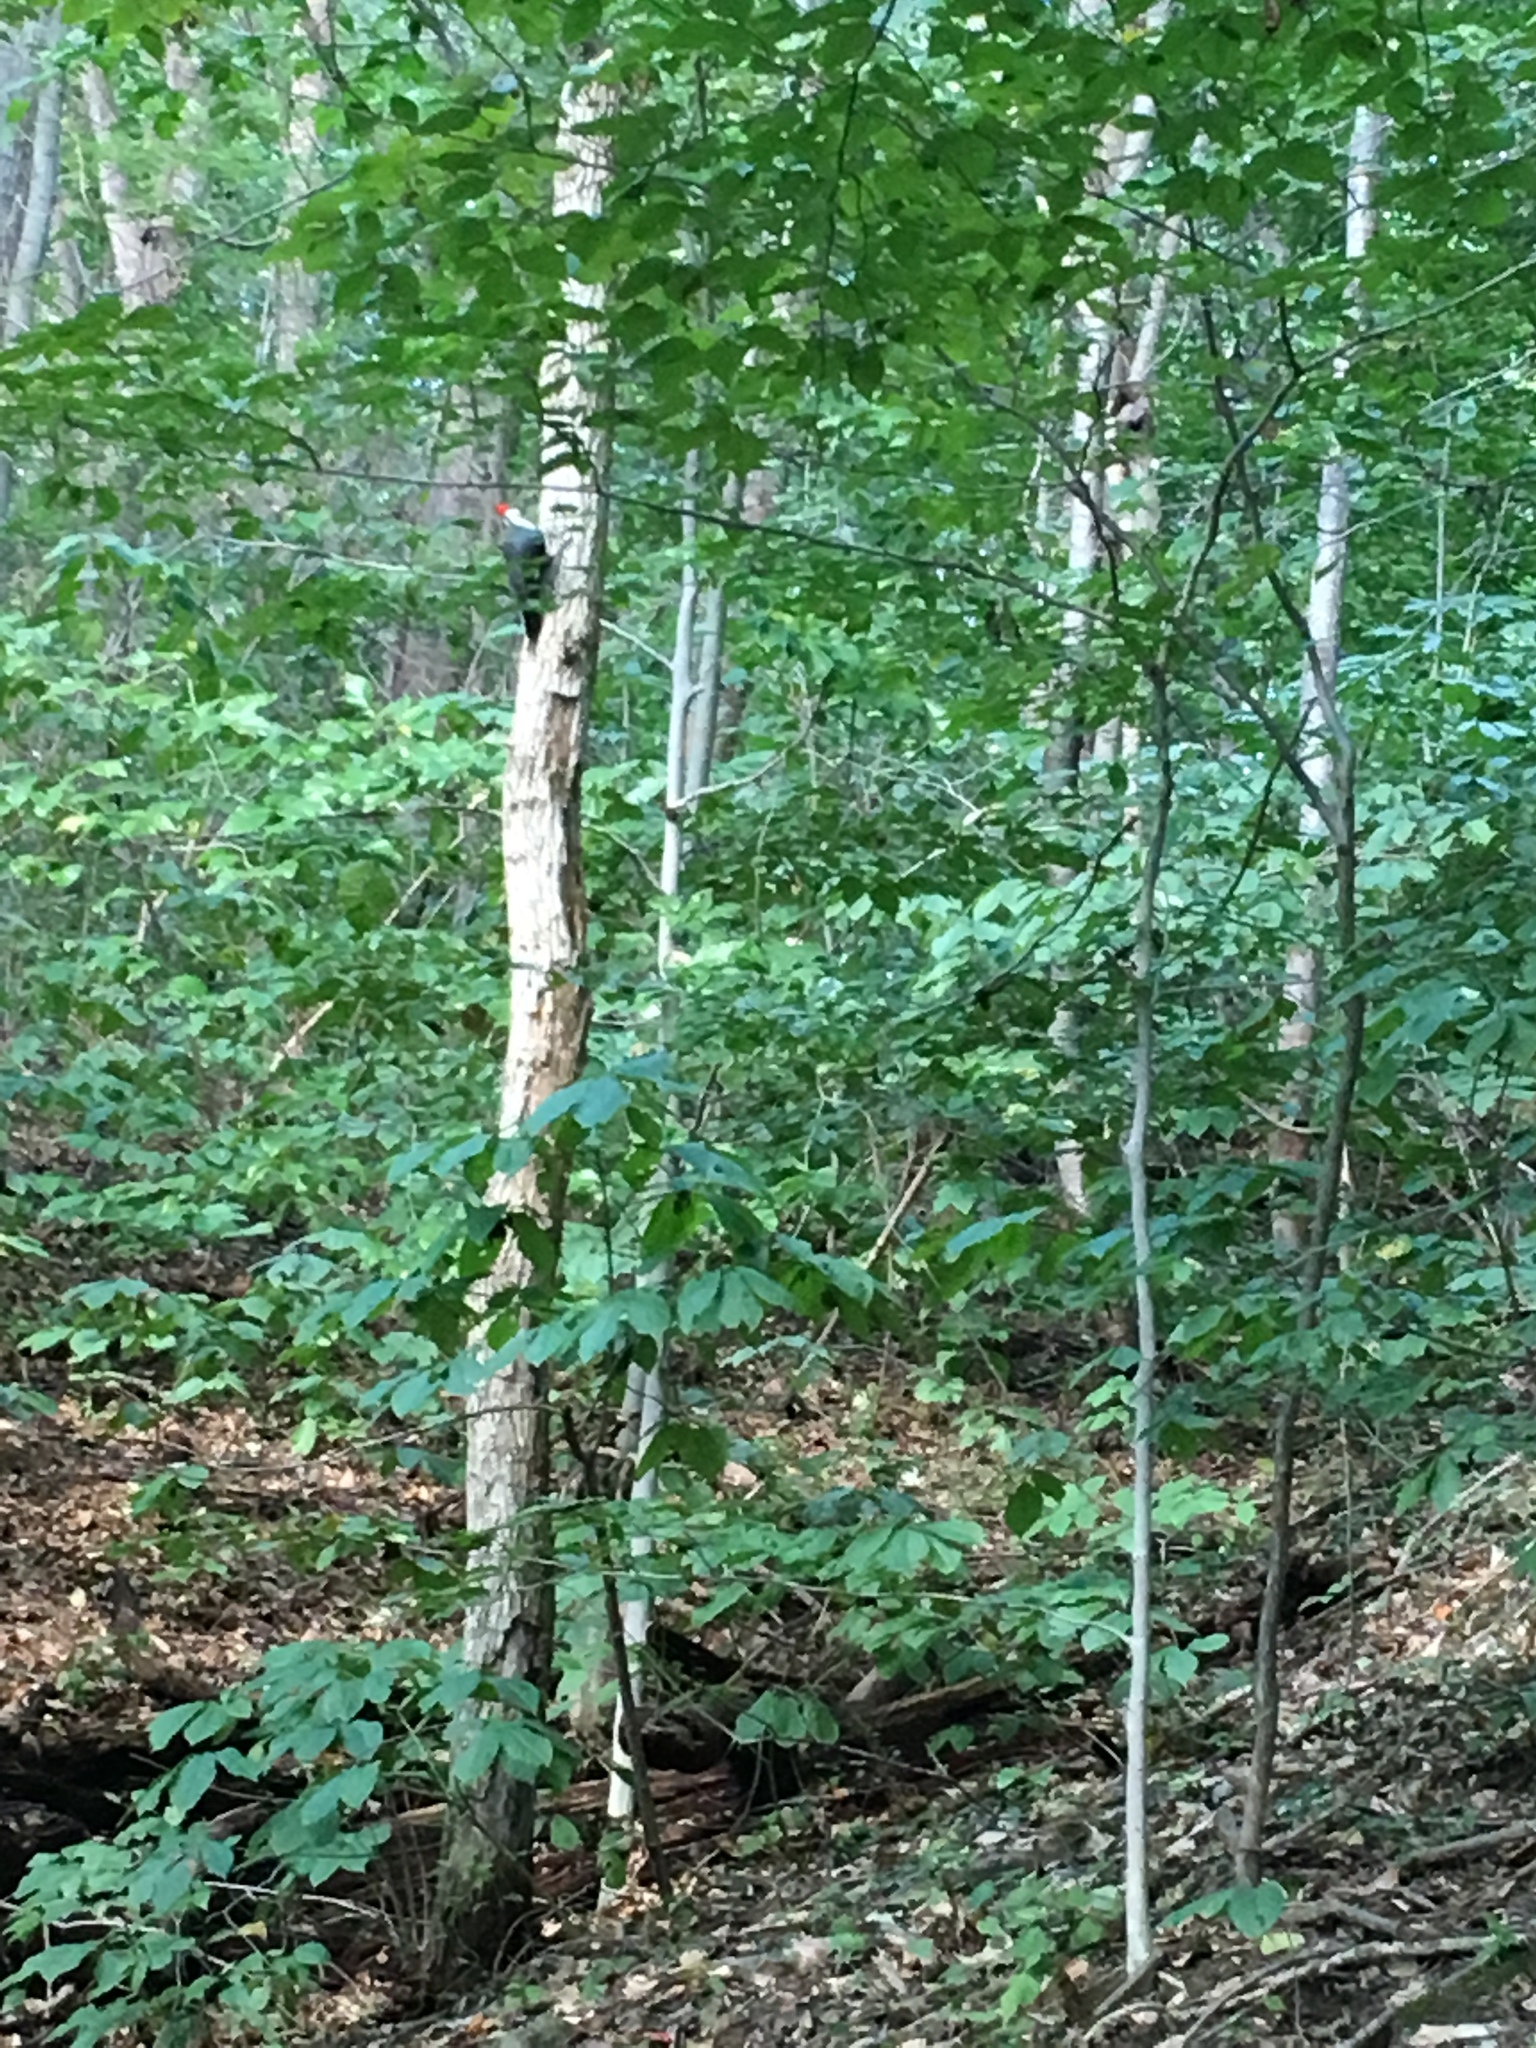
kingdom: Animalia
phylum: Chordata
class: Aves
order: Piciformes
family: Picidae
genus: Dryocopus
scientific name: Dryocopus pileatus
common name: Pileated woodpecker
